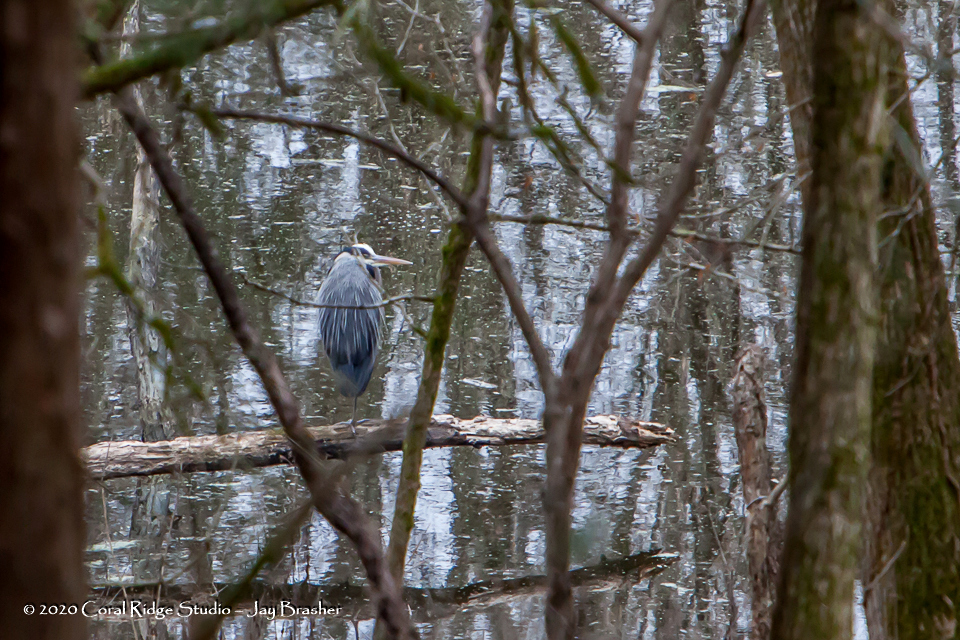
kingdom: Animalia
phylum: Chordata
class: Aves
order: Pelecaniformes
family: Ardeidae
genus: Ardea
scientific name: Ardea herodias
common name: Great blue heron
